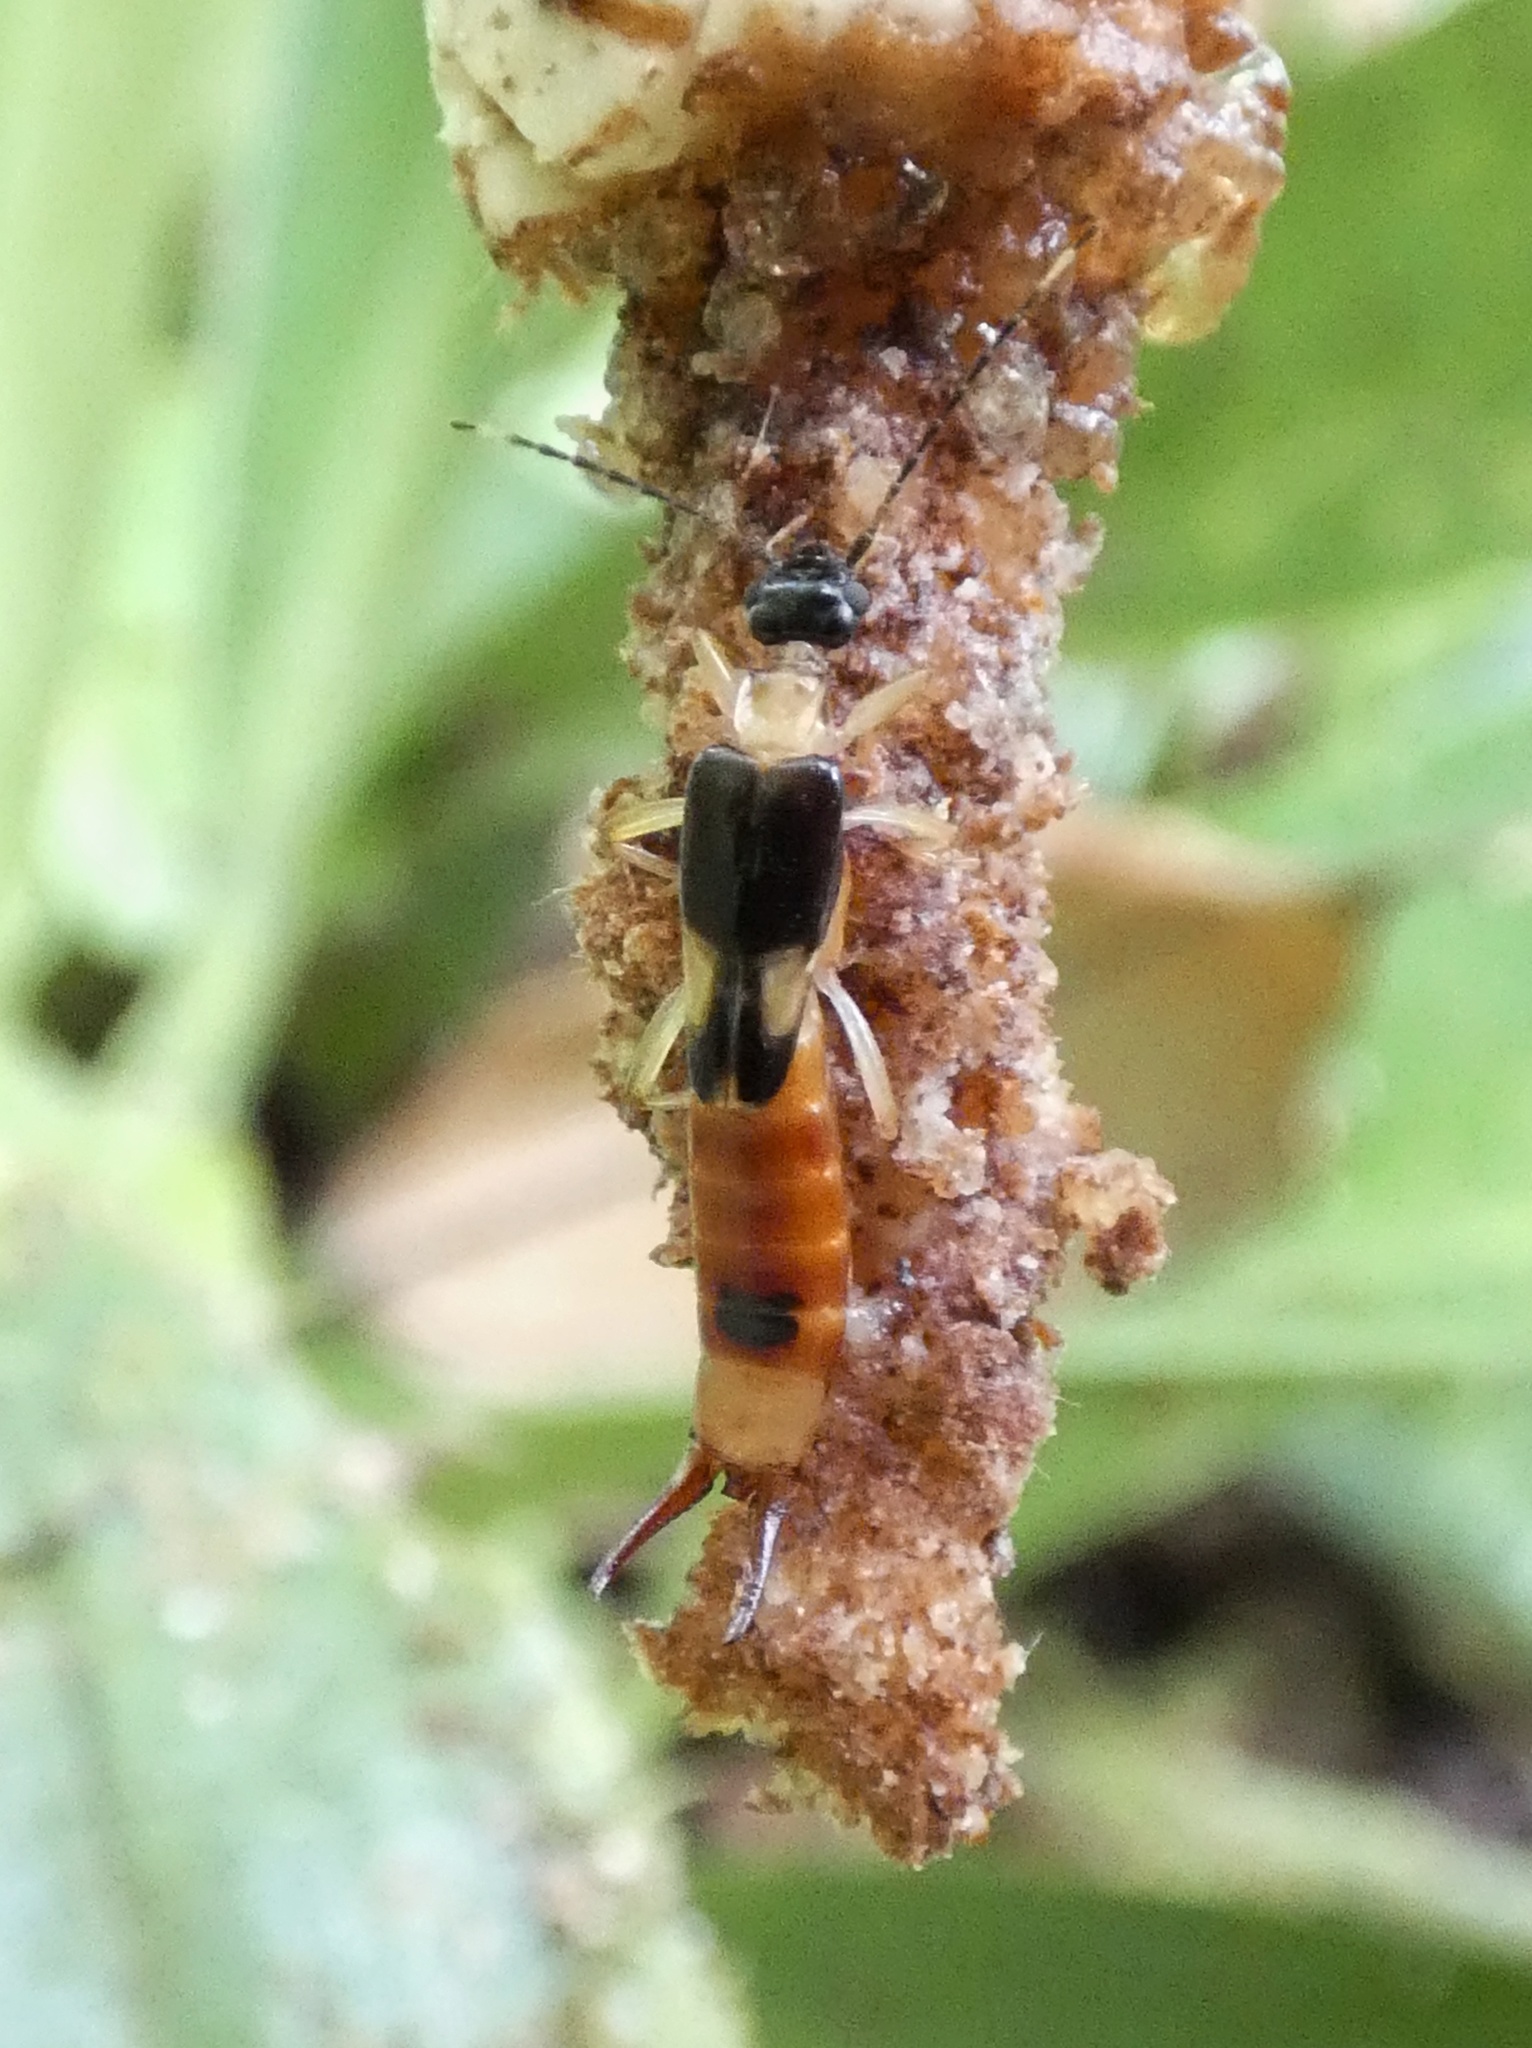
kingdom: Animalia
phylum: Arthropoda
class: Insecta
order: Dermaptera
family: Spongiphoridae
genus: Purex
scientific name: Purex remotus
